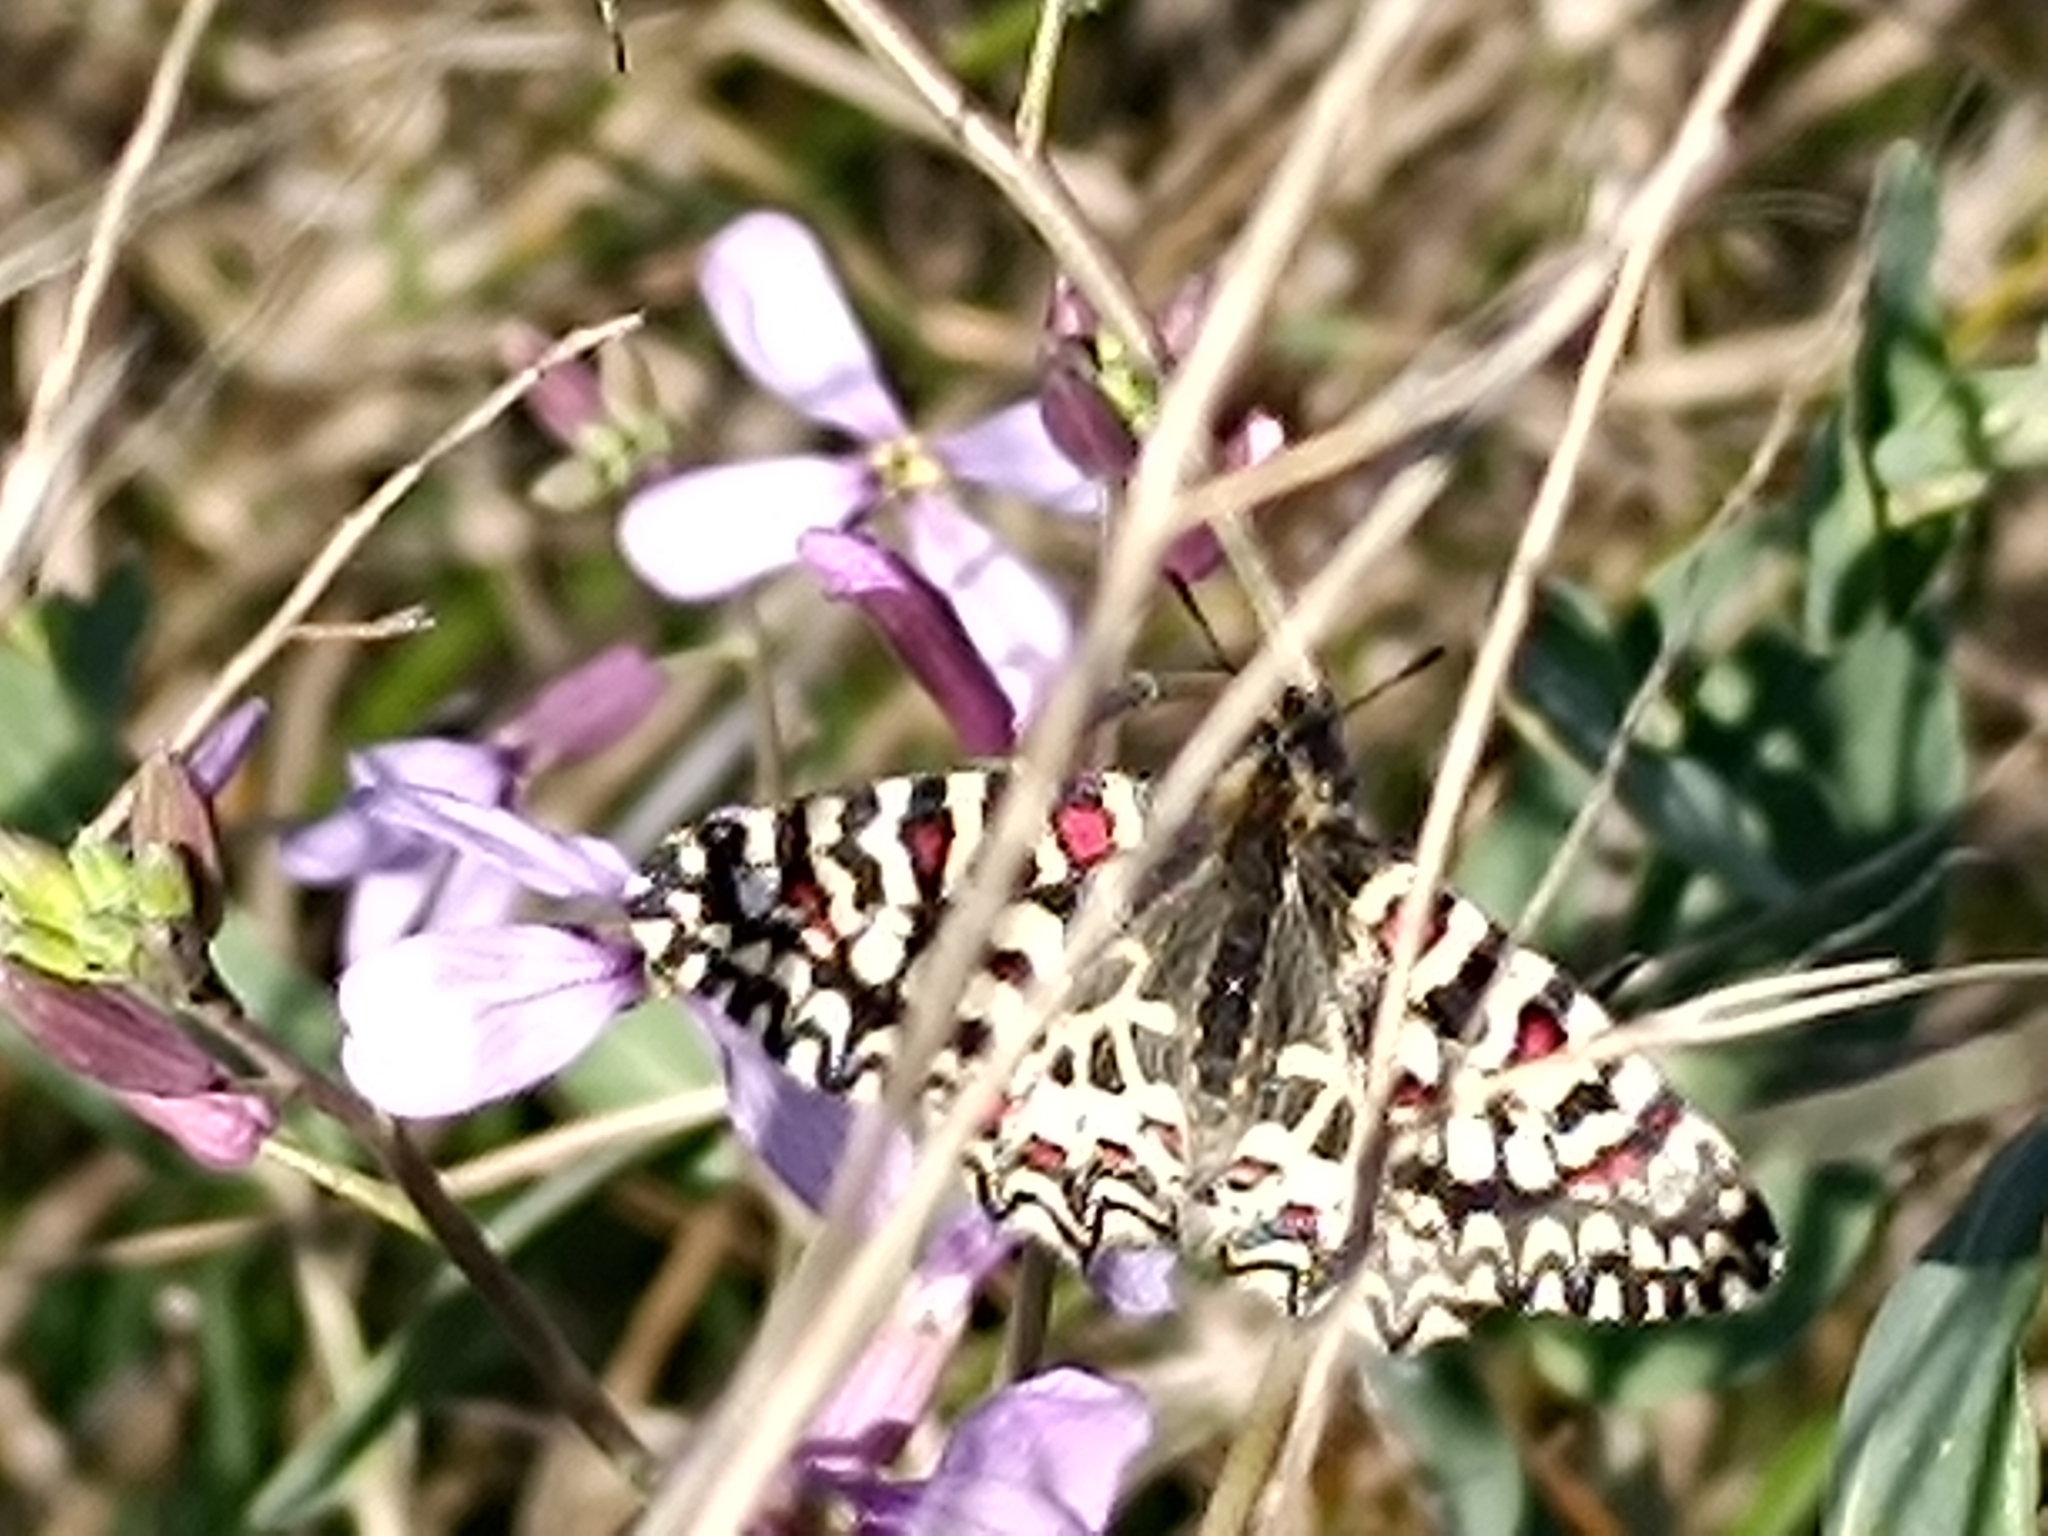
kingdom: Animalia
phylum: Arthropoda
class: Insecta
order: Lepidoptera
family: Papilionidae
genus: Zerynthia
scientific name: Zerynthia rumina
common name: Spanish festoon
